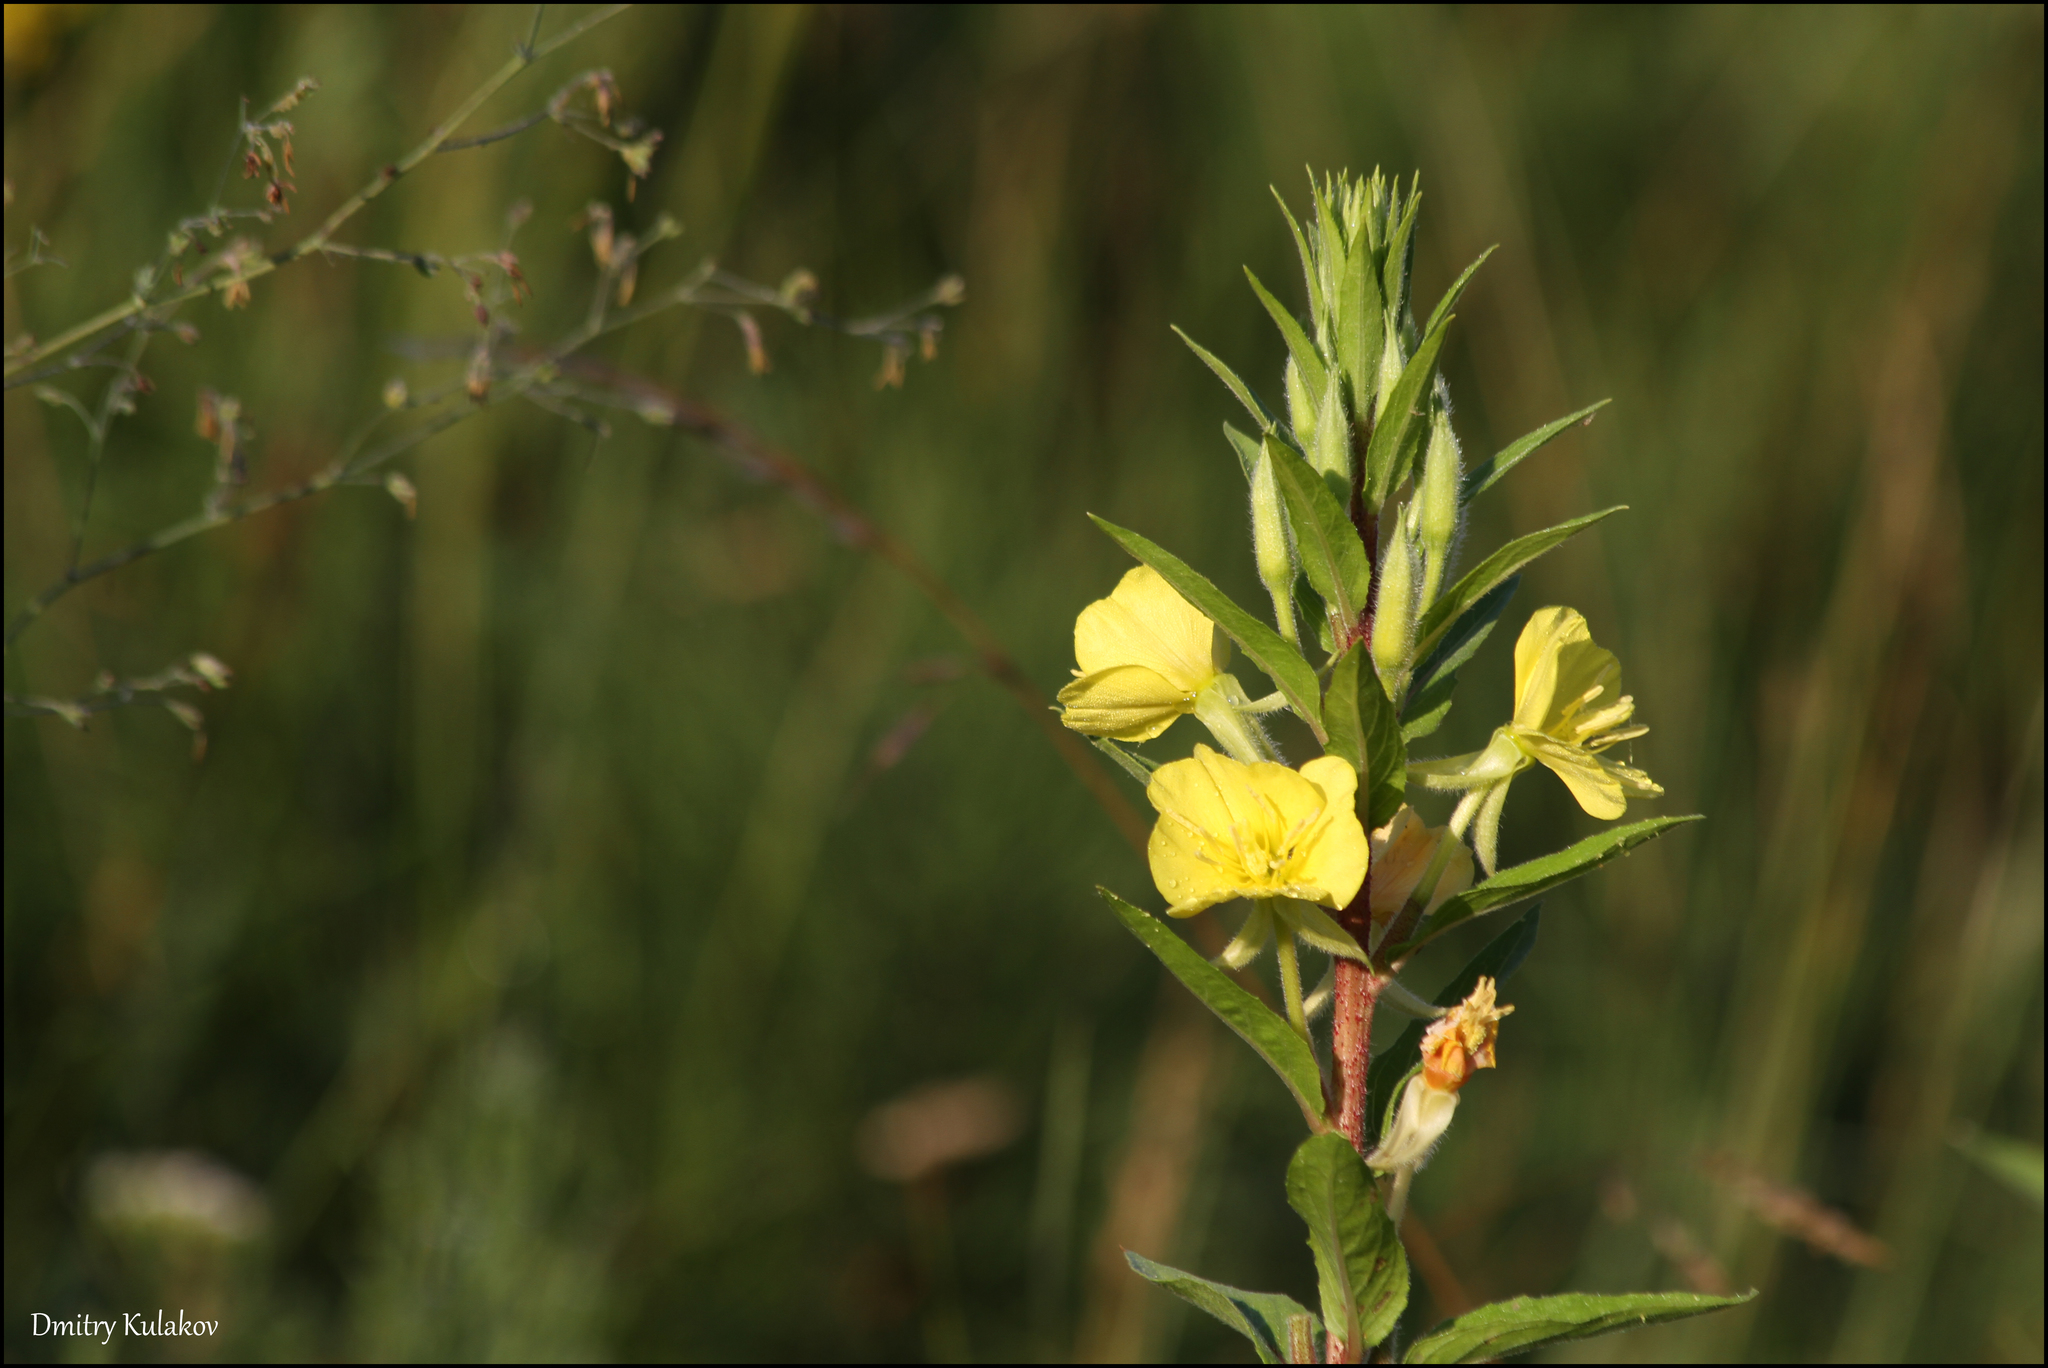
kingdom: Plantae
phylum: Tracheophyta
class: Magnoliopsida
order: Myrtales
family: Onagraceae
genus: Oenothera
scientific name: Oenothera biennis
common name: Common evening-primrose
